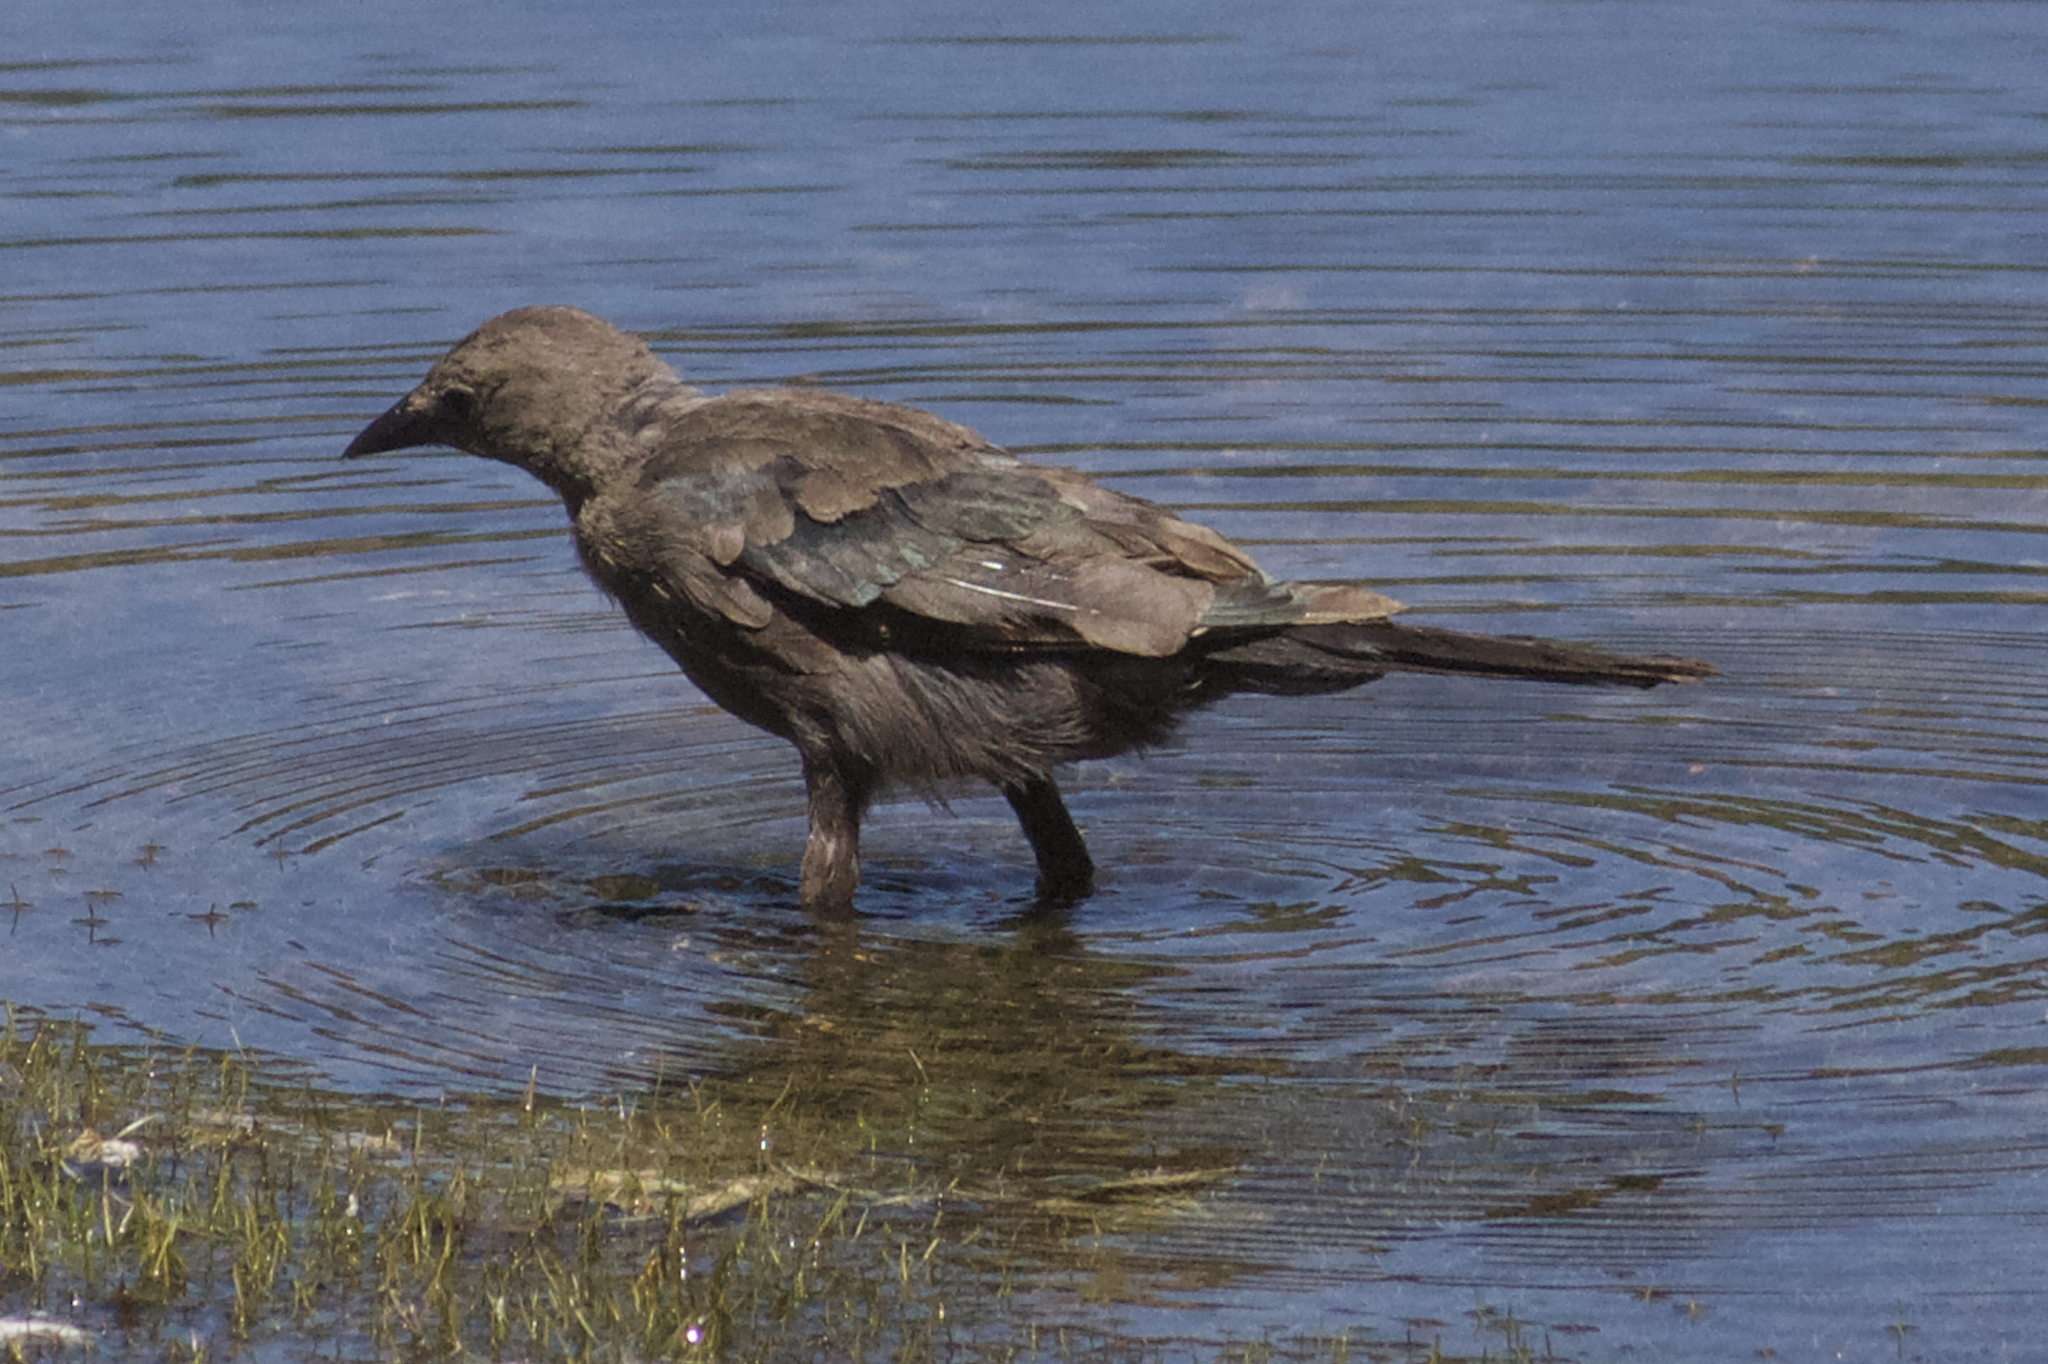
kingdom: Animalia
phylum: Chordata
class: Aves
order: Passeriformes
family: Icteridae
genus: Euphagus
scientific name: Euphagus cyanocephalus
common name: Brewer's blackbird
